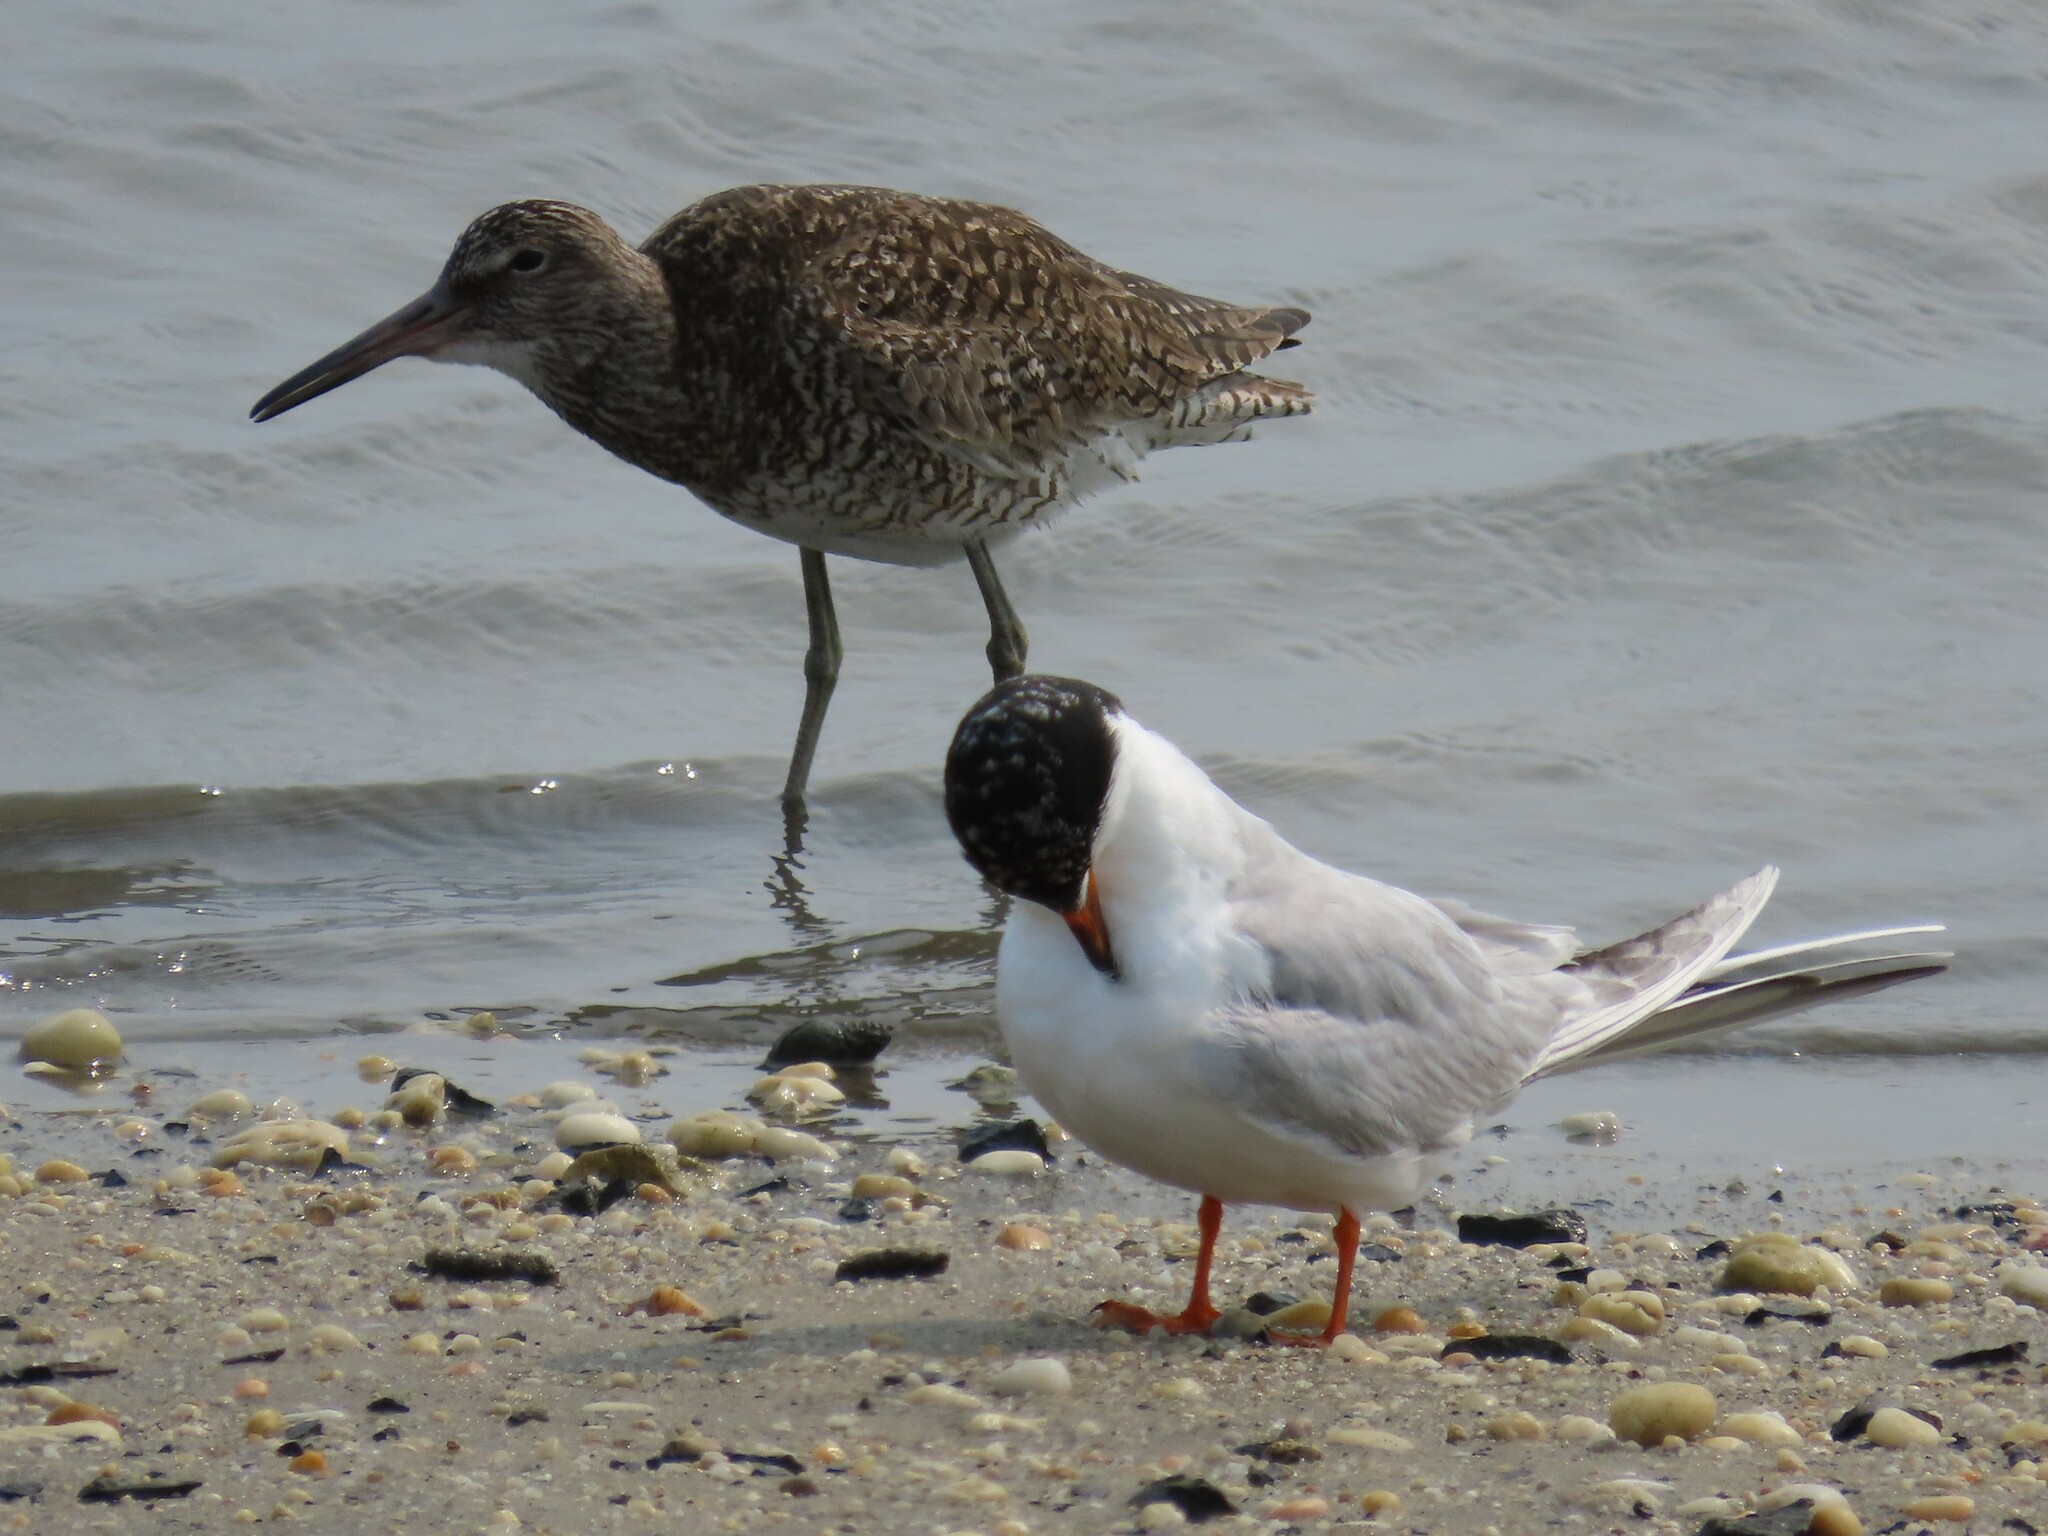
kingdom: Animalia
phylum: Chordata
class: Aves
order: Charadriiformes
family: Scolopacidae
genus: Tringa
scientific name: Tringa semipalmata
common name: Willet
